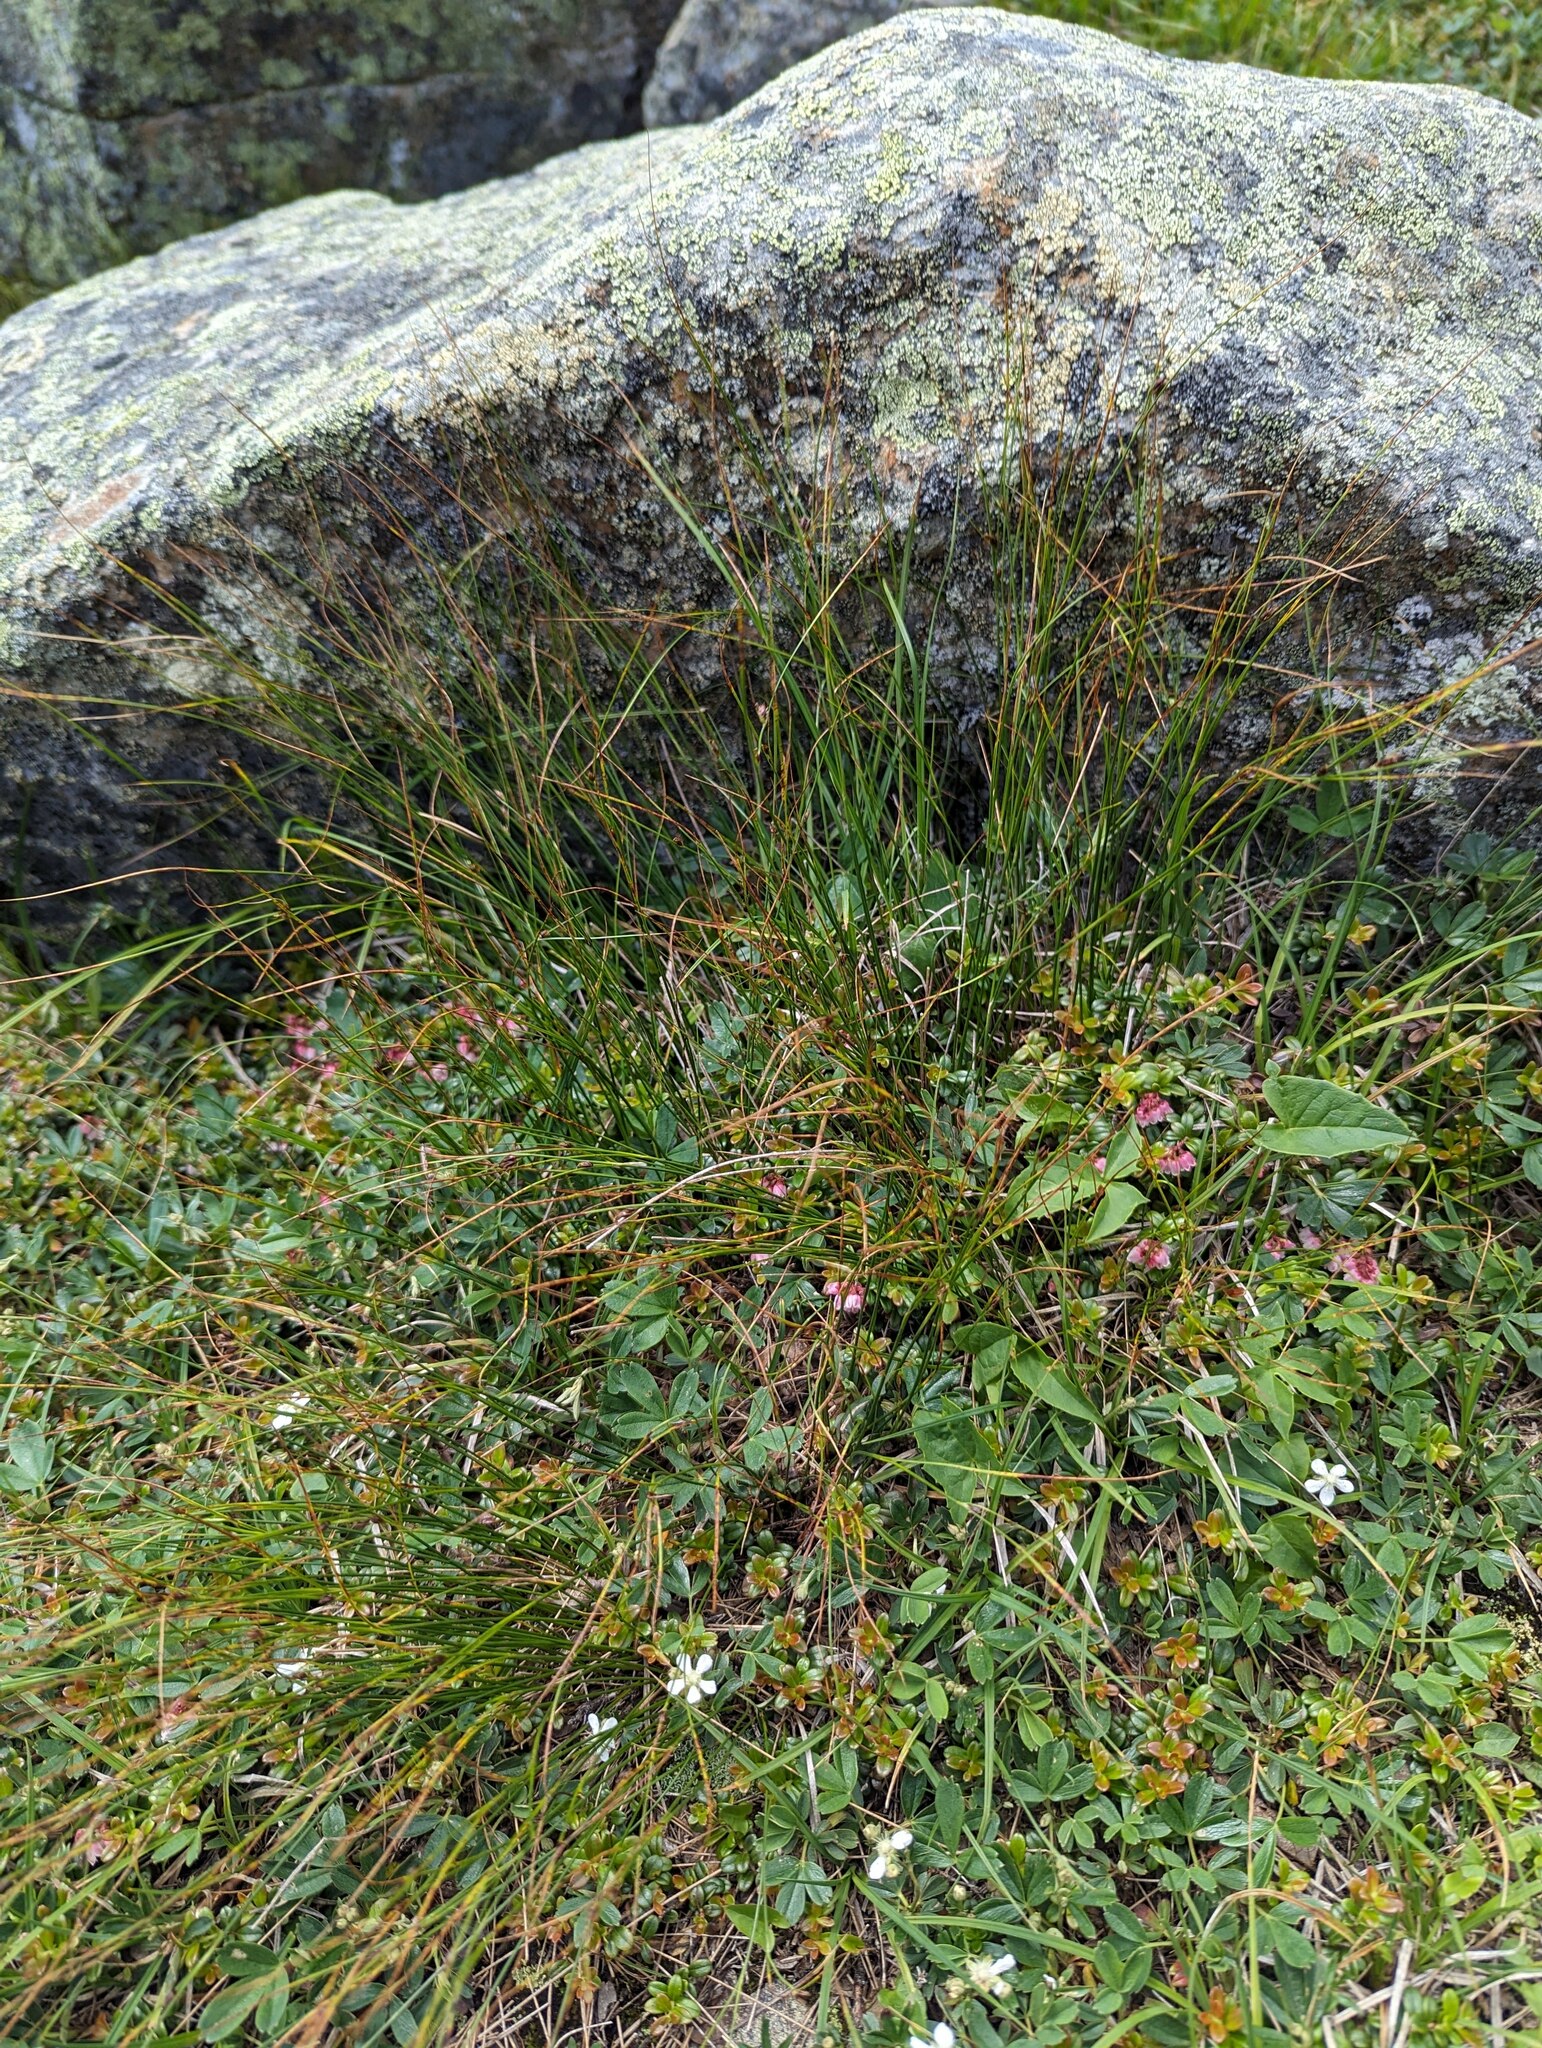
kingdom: Plantae
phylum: Tracheophyta
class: Magnoliopsida
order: Ericales
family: Ericaceae
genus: Vaccinium
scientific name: Vaccinium vitis-idaea
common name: Cowberry
